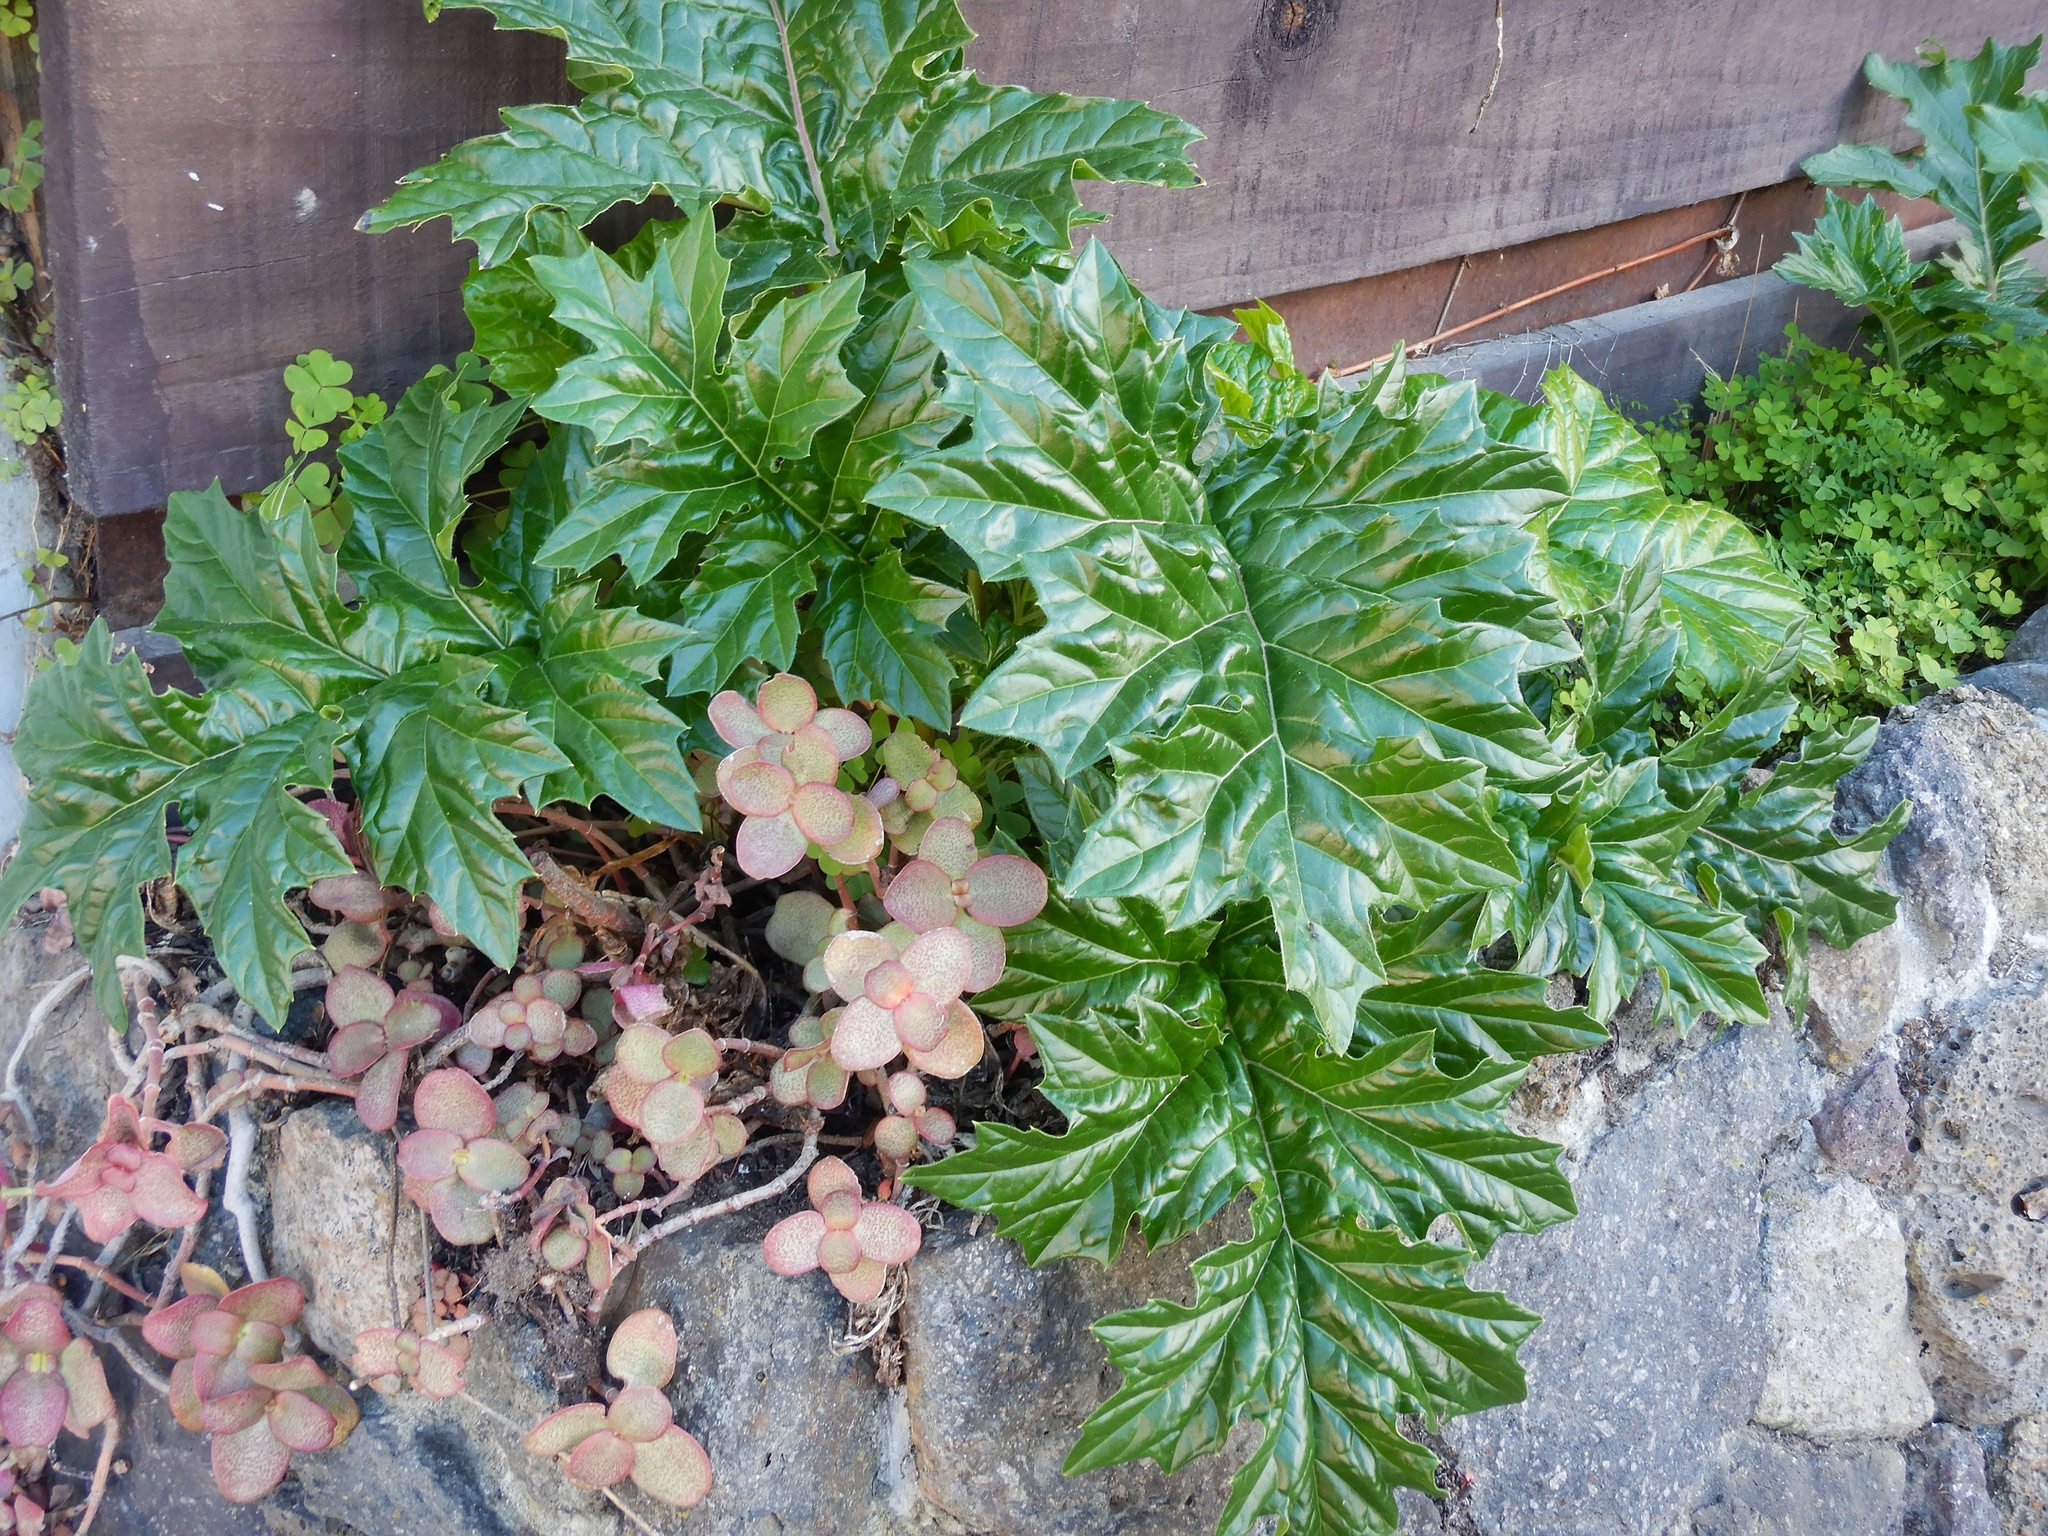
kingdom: Plantae
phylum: Tracheophyta
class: Magnoliopsida
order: Lamiales
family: Acanthaceae
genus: Acanthus
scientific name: Acanthus mollis
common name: Bear's-breech
